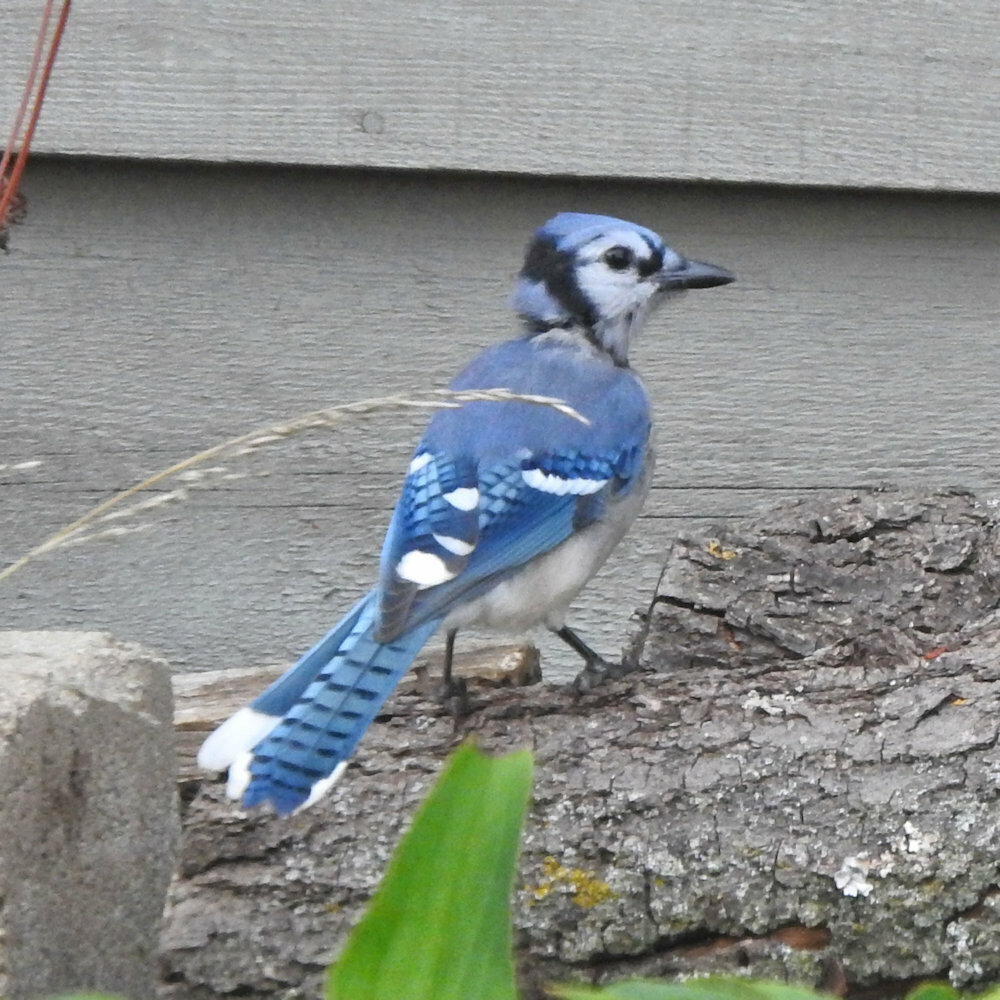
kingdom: Animalia
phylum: Chordata
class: Aves
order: Passeriformes
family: Corvidae
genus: Cyanocitta
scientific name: Cyanocitta cristata
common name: Blue jay
